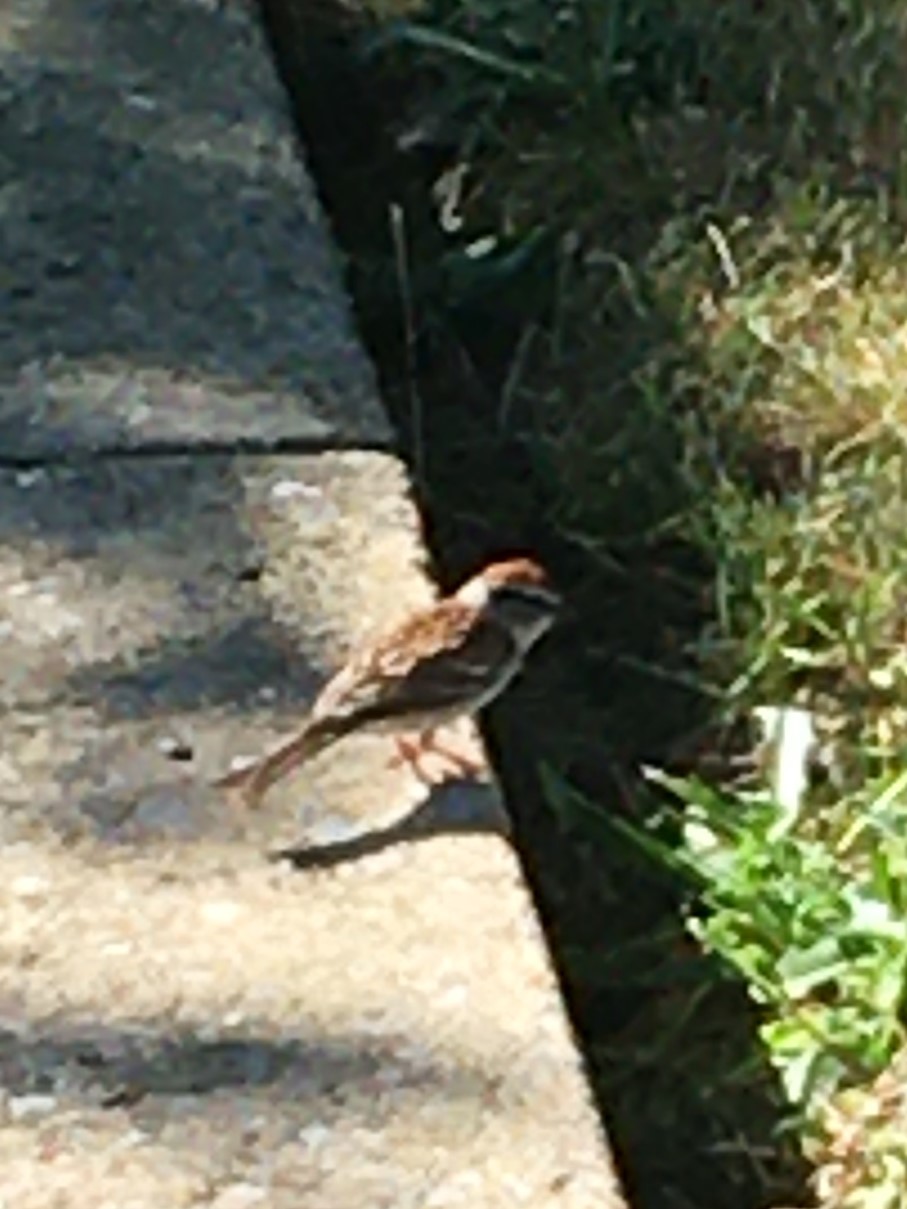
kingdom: Animalia
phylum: Chordata
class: Aves
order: Passeriformes
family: Passerellidae
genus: Spizella
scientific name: Spizella passerina
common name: Chipping sparrow
